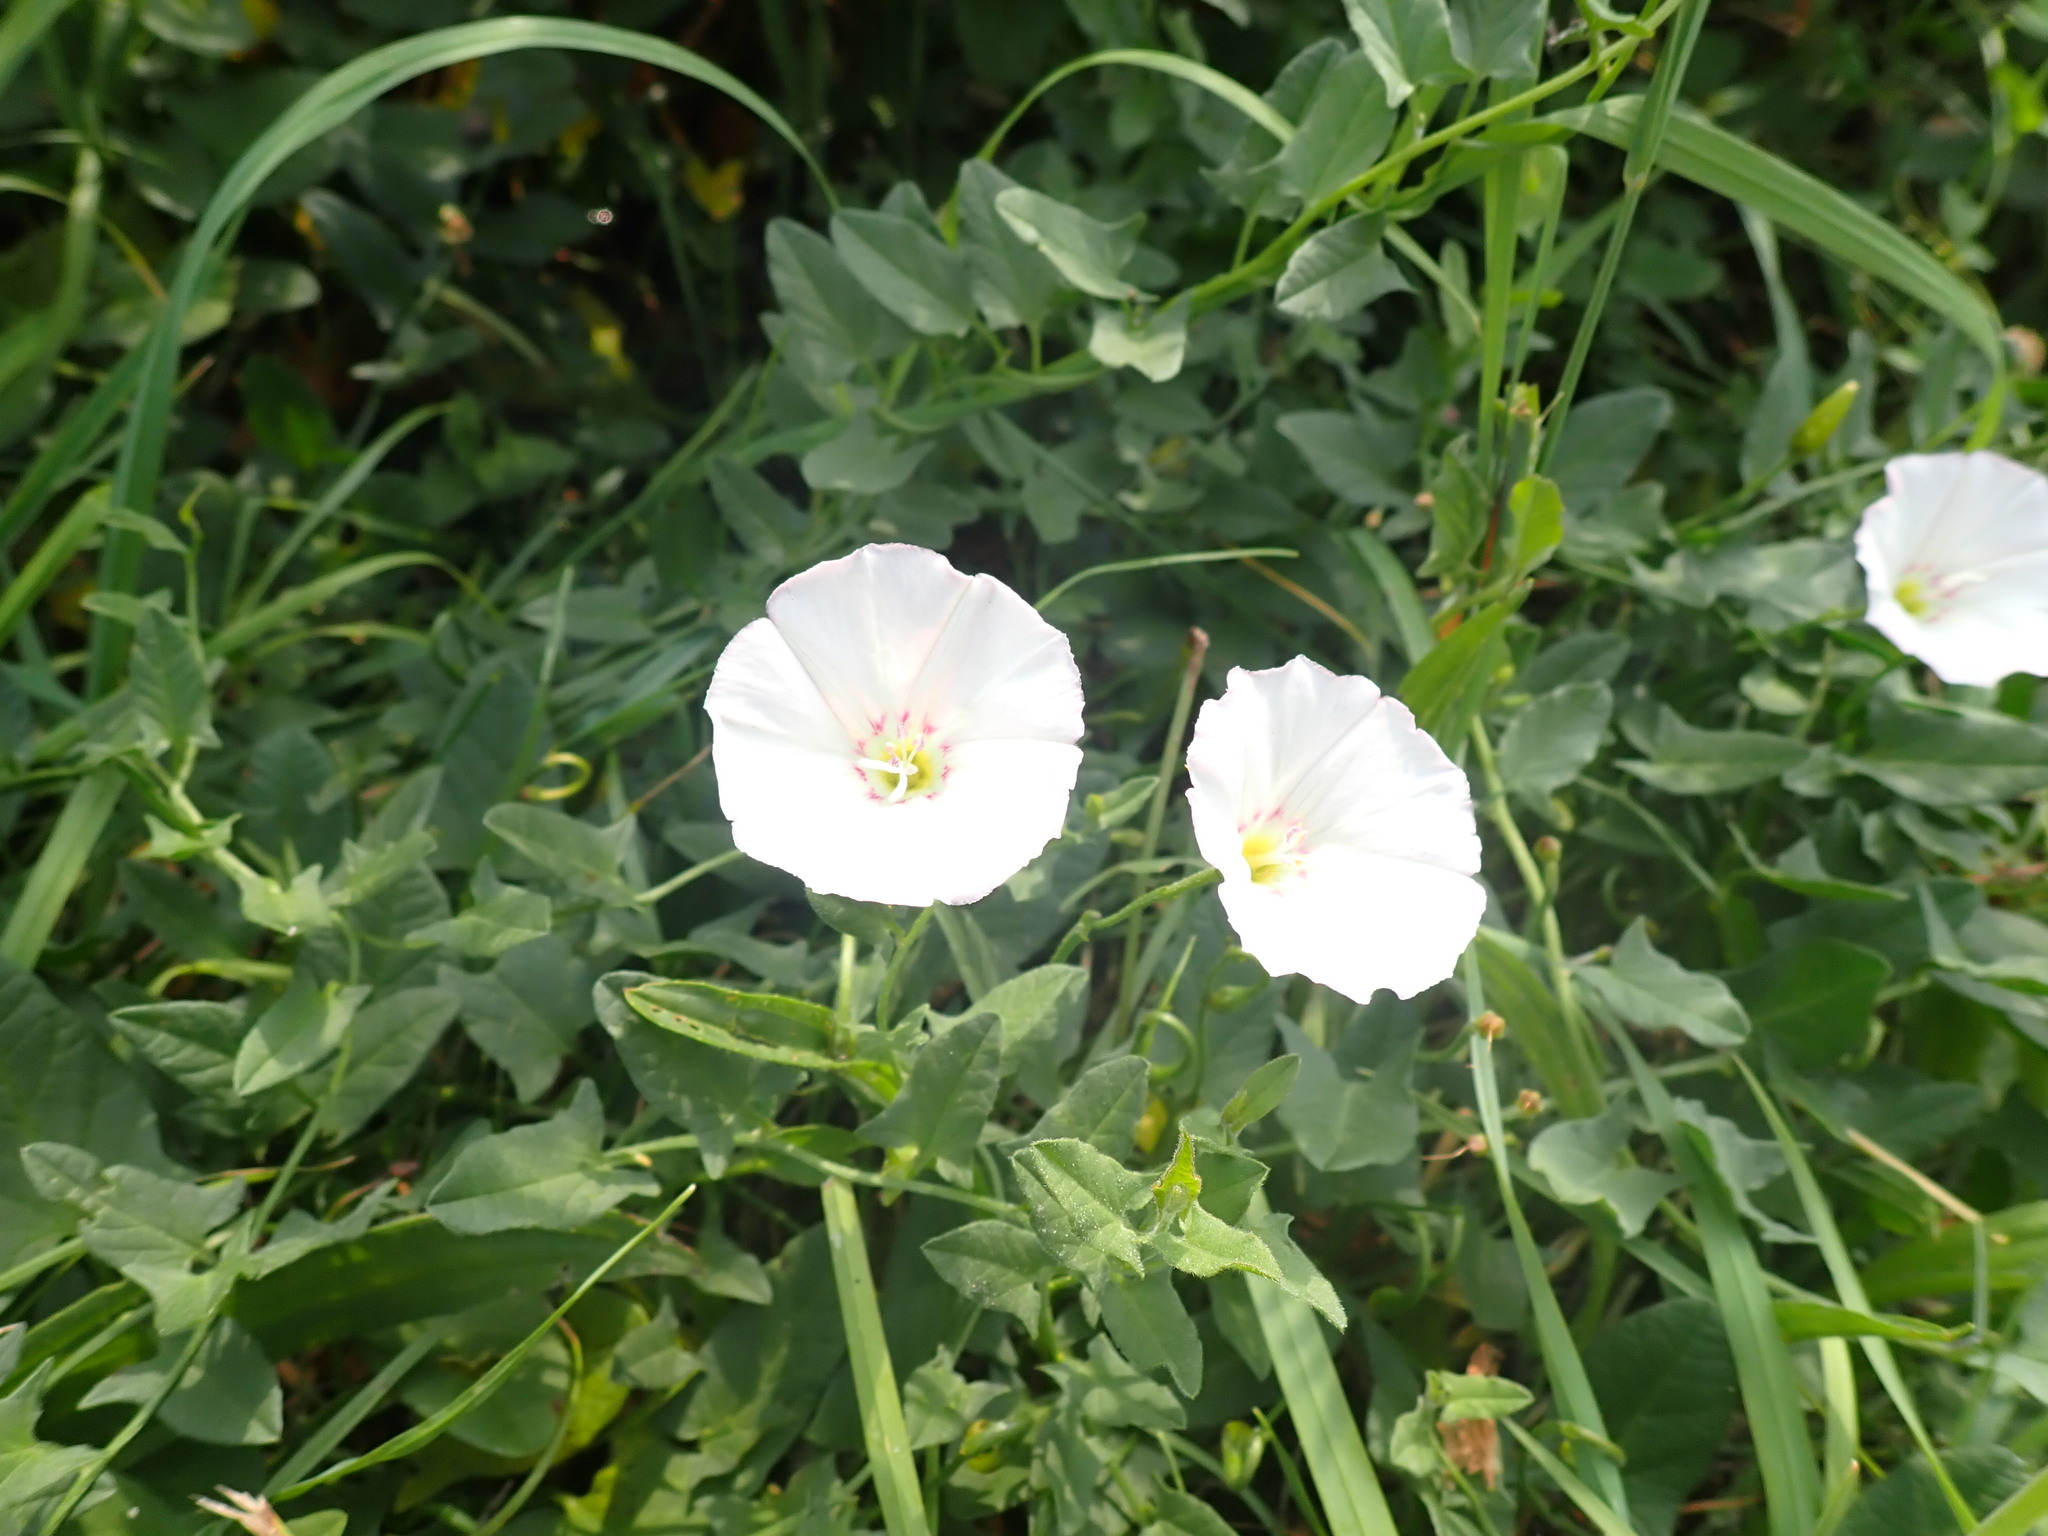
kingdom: Plantae
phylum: Tracheophyta
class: Magnoliopsida
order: Solanales
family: Convolvulaceae
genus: Convolvulus
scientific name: Convolvulus arvensis
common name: Field bindweed
